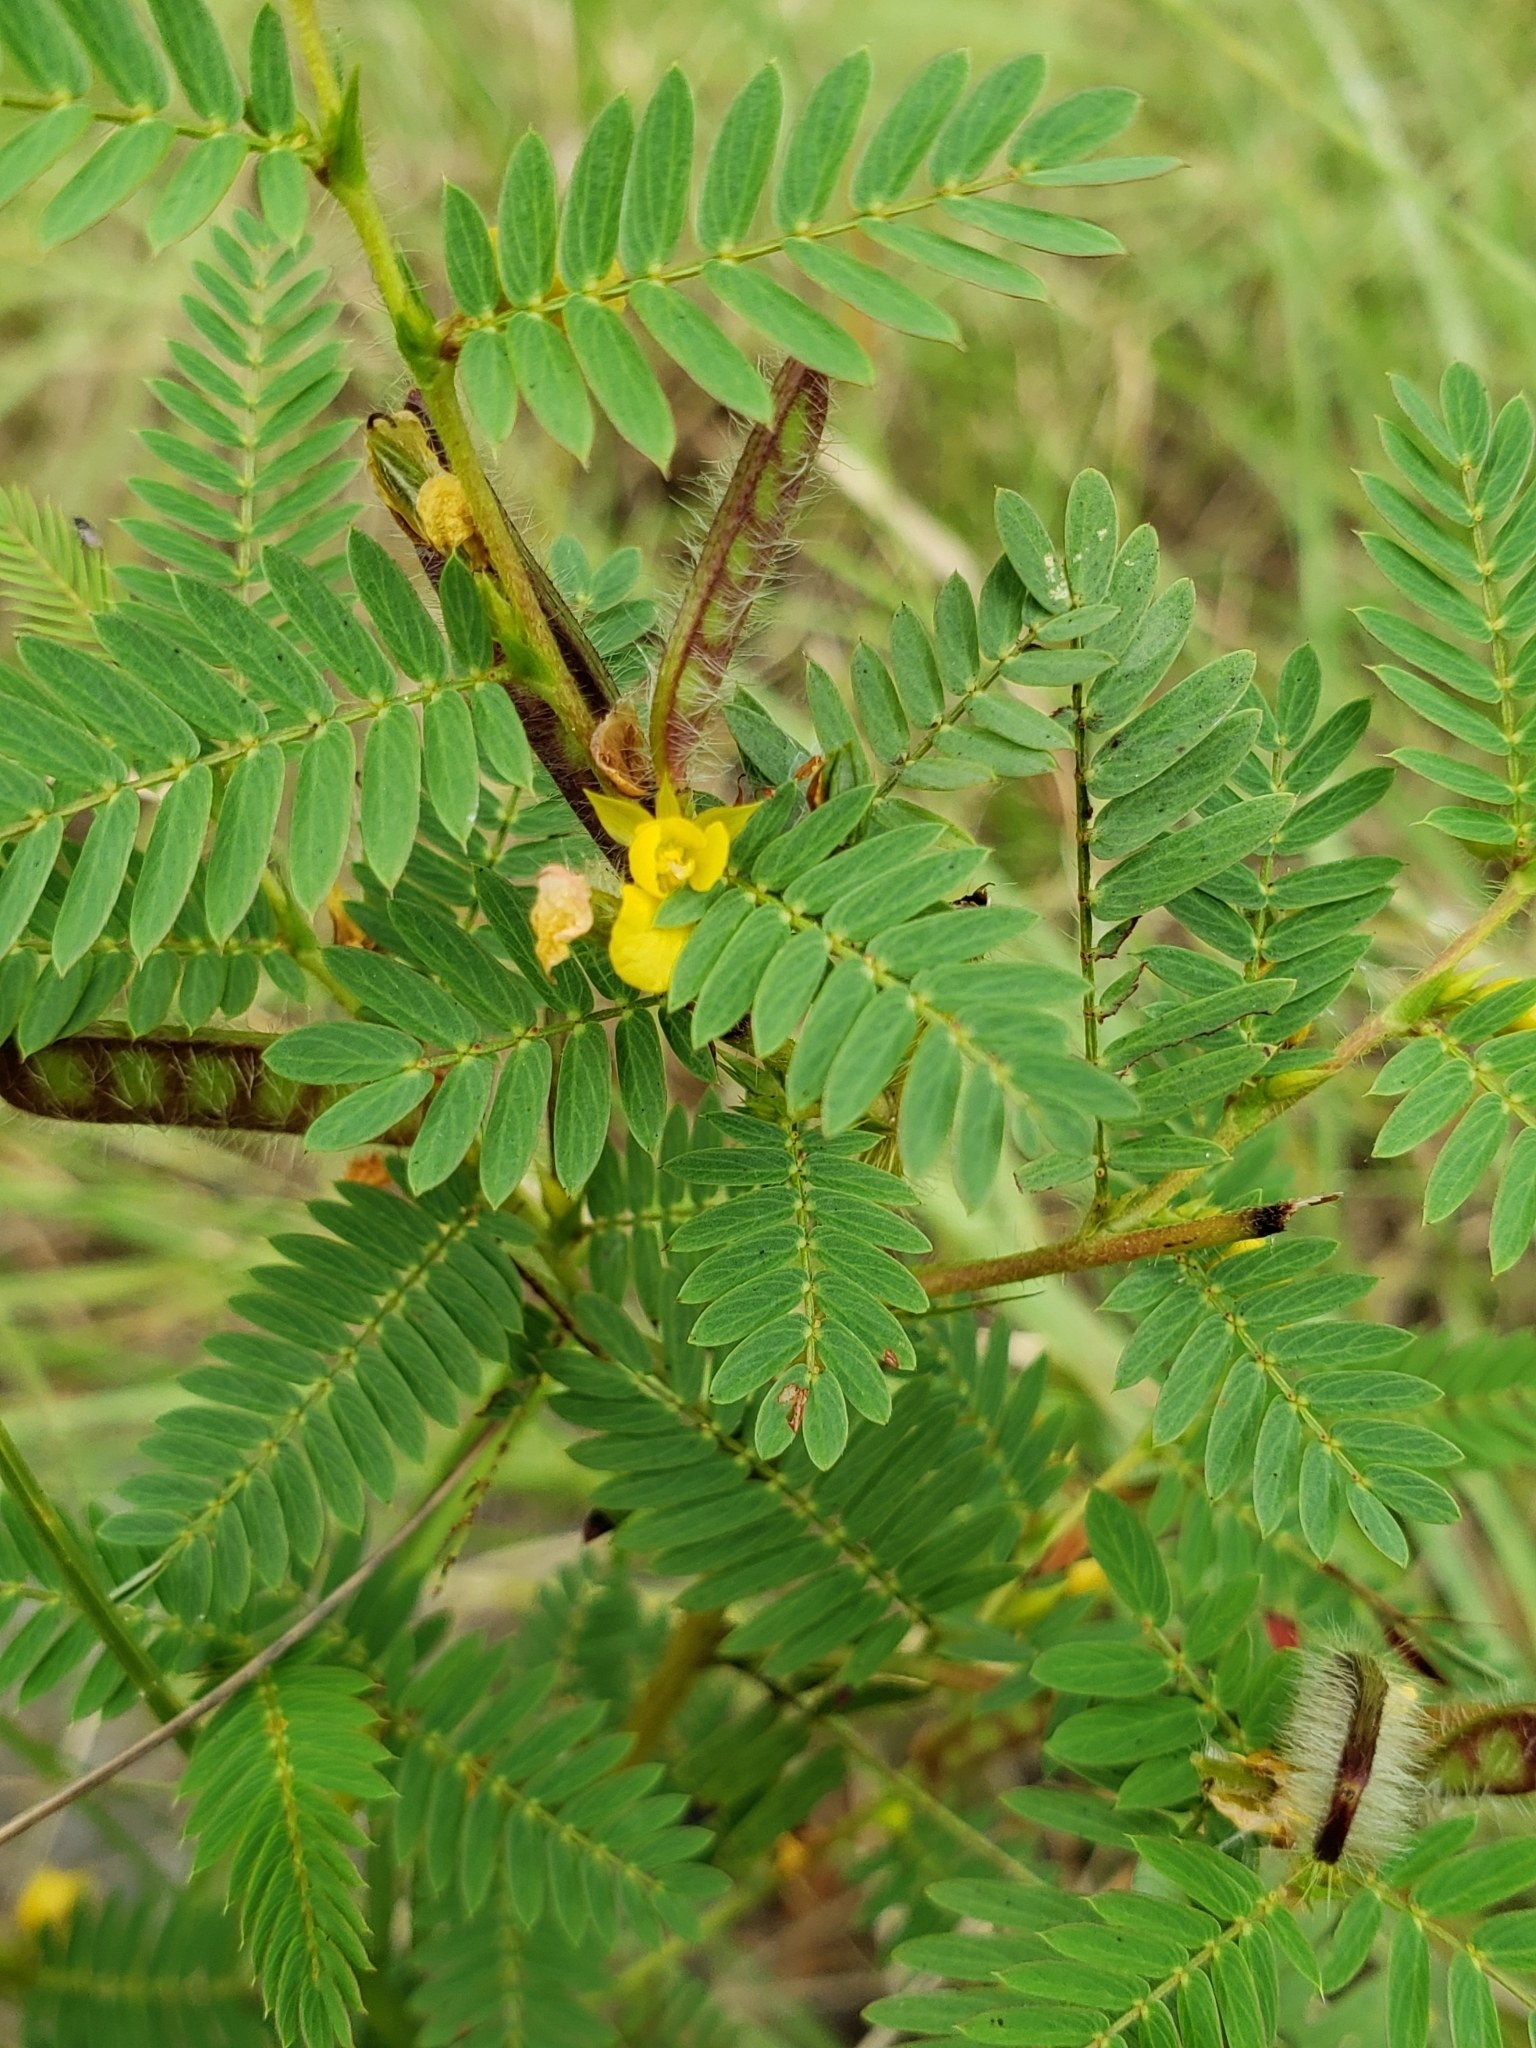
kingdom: Plantae
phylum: Tracheophyta
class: Magnoliopsida
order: Fabales
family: Fabaceae
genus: Chamaecrista
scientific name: Chamaecrista nictitans
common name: Sensitive cassia
